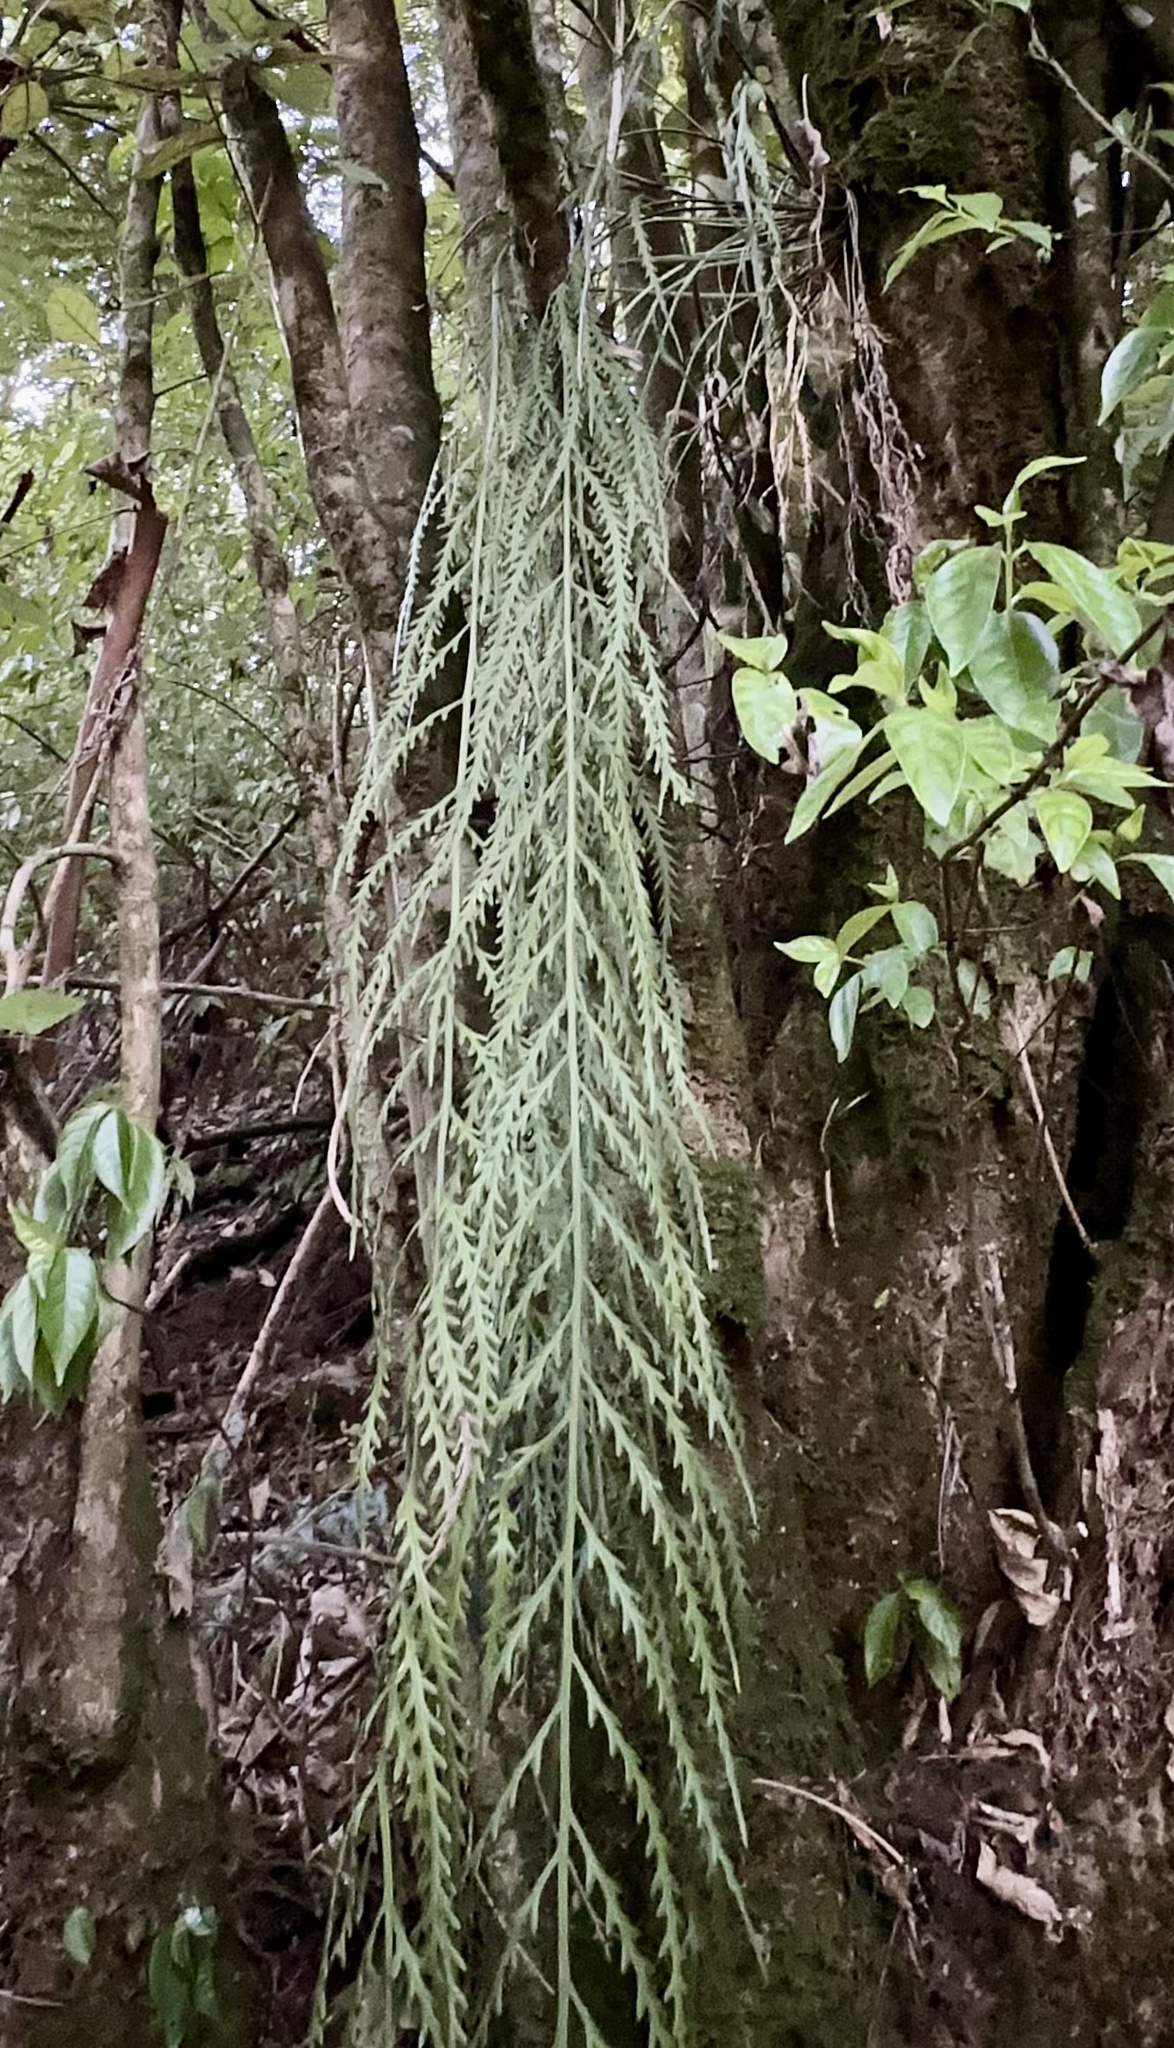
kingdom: Plantae
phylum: Tracheophyta
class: Polypodiopsida
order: Polypodiales
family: Aspleniaceae
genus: Asplenium
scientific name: Asplenium flaccidum
